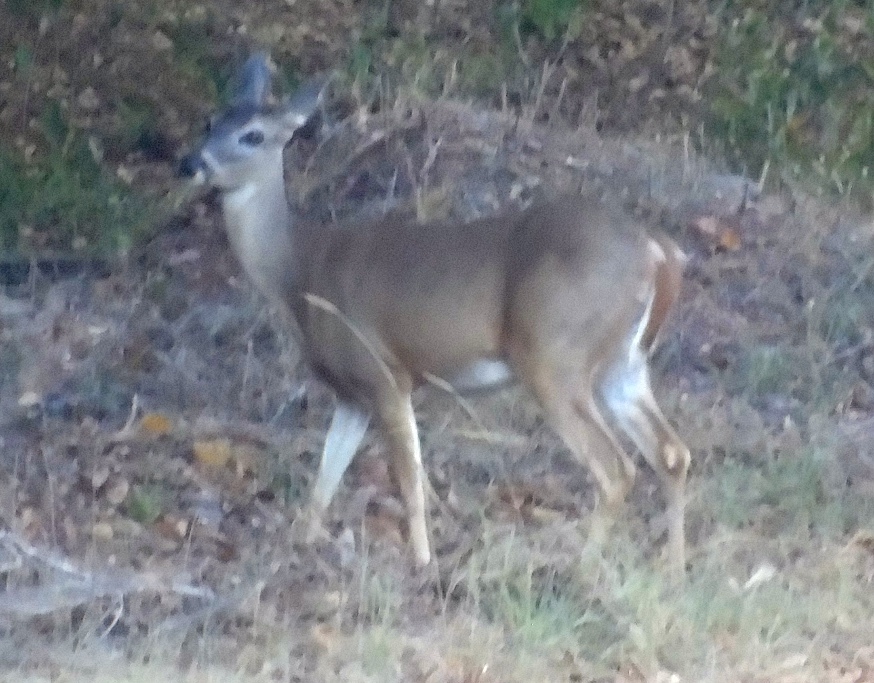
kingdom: Animalia
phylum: Chordata
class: Mammalia
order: Artiodactyla
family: Cervidae
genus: Odocoileus
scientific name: Odocoileus virginianus
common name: White-tailed deer
